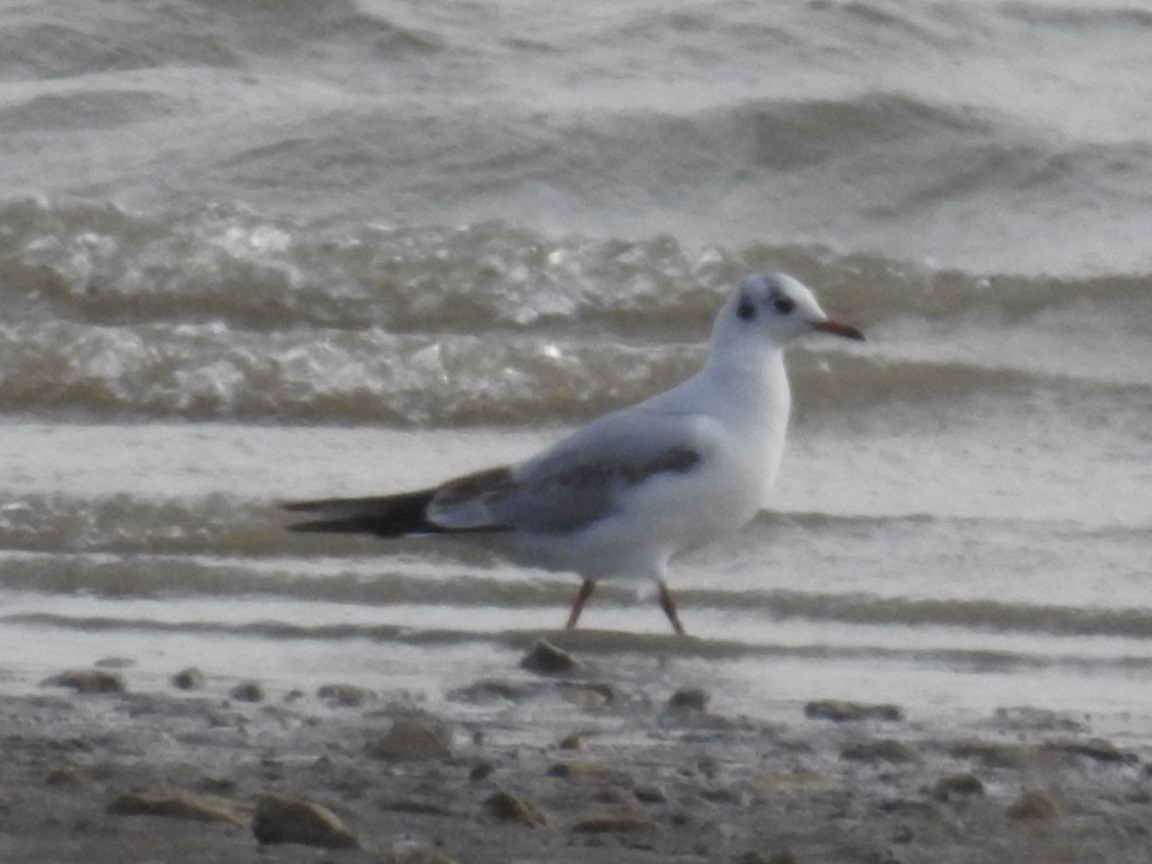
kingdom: Animalia
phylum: Chordata
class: Aves
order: Charadriiformes
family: Laridae
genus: Chroicocephalus
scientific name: Chroicocephalus ridibundus
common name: Black-headed gull
